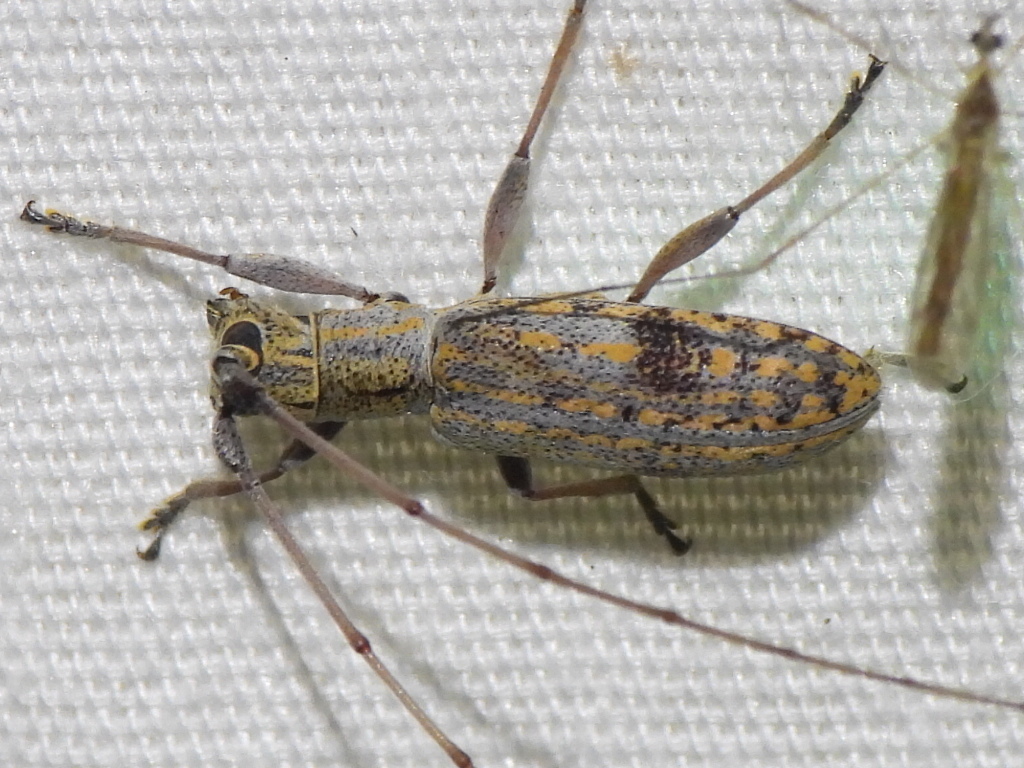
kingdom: Animalia
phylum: Arthropoda
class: Insecta
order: Coleoptera
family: Cerambycidae
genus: Dorcaschema
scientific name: Dorcaschema alternatum
